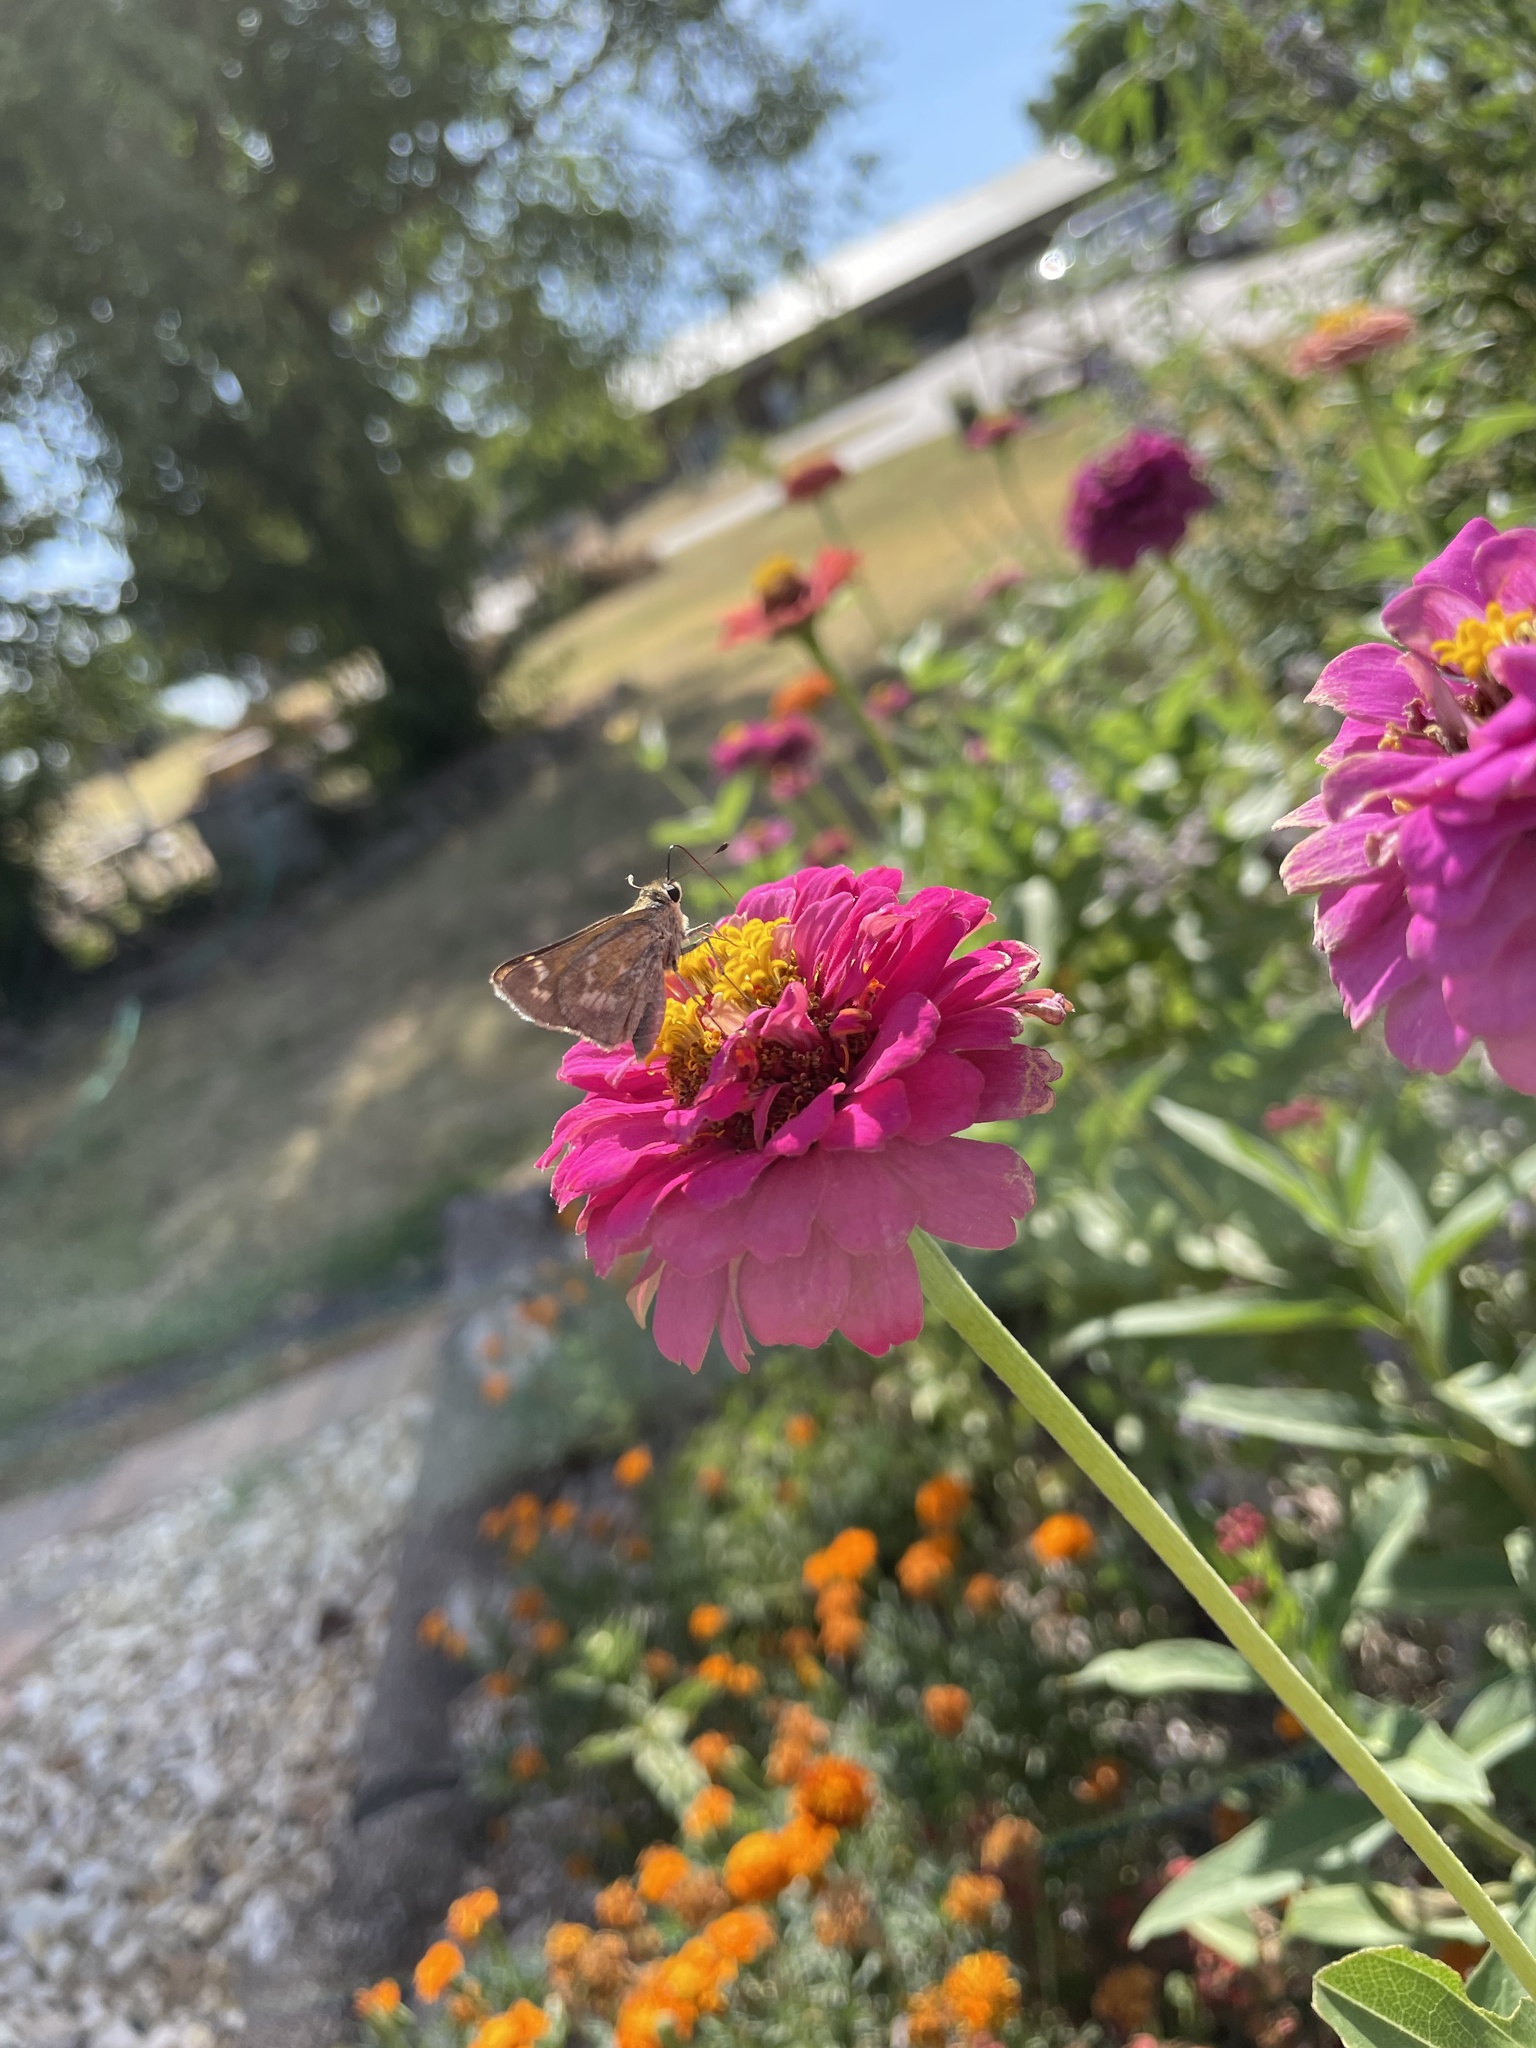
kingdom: Animalia
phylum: Arthropoda
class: Insecta
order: Lepidoptera
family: Hesperiidae
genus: Atalopedes
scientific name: Atalopedes
